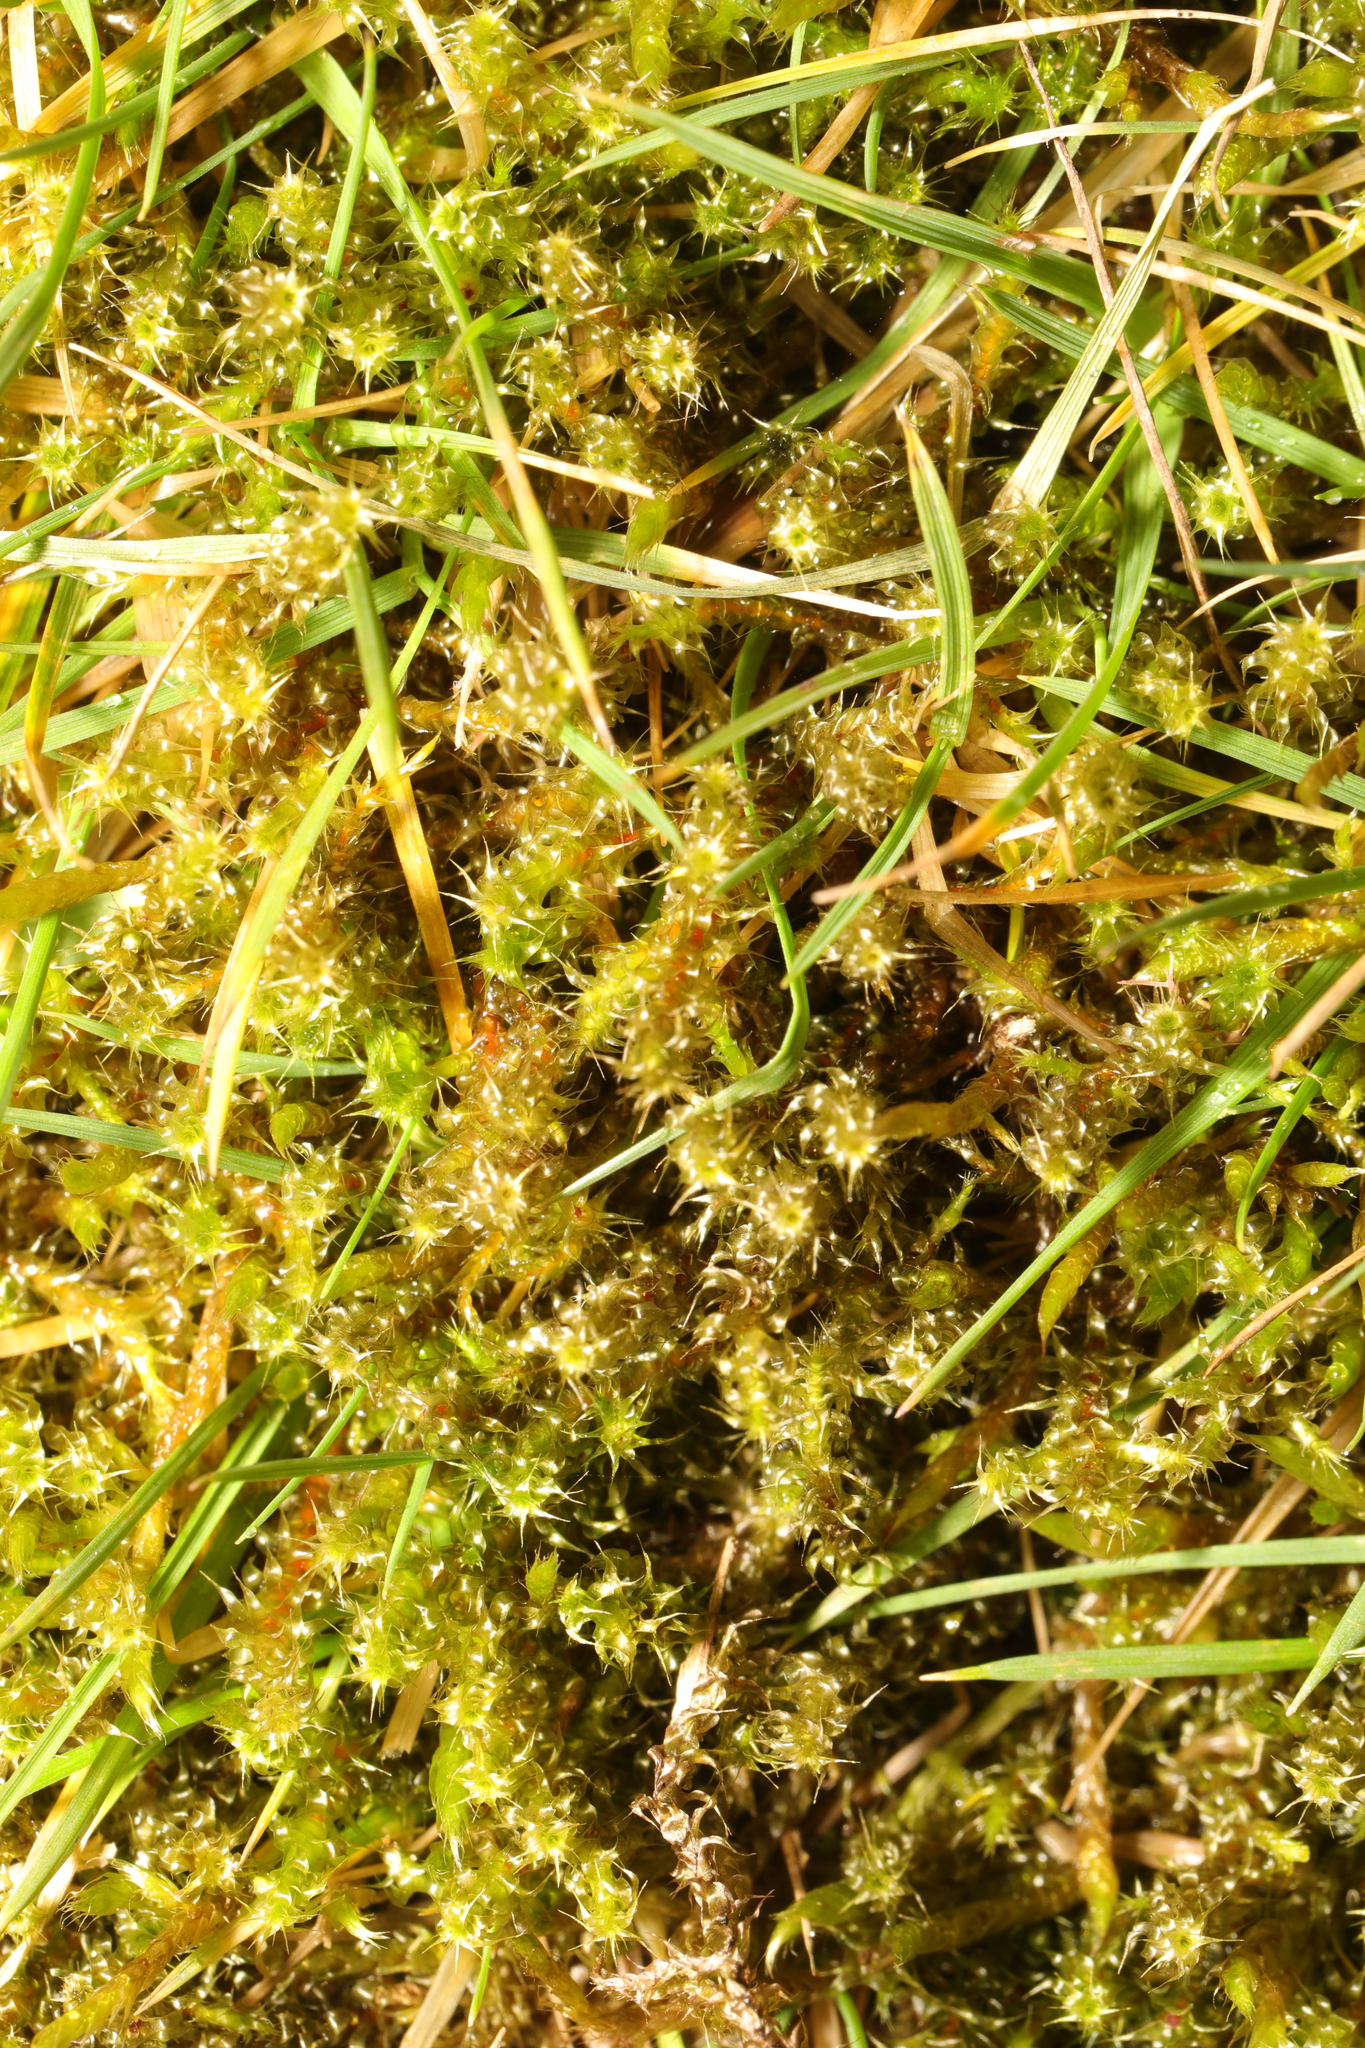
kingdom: Plantae
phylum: Bryophyta
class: Bryopsida
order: Hypnales
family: Hylocomiaceae
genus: Rhytidiadelphus
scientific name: Rhytidiadelphus squarrosus
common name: Springy turf-moss
